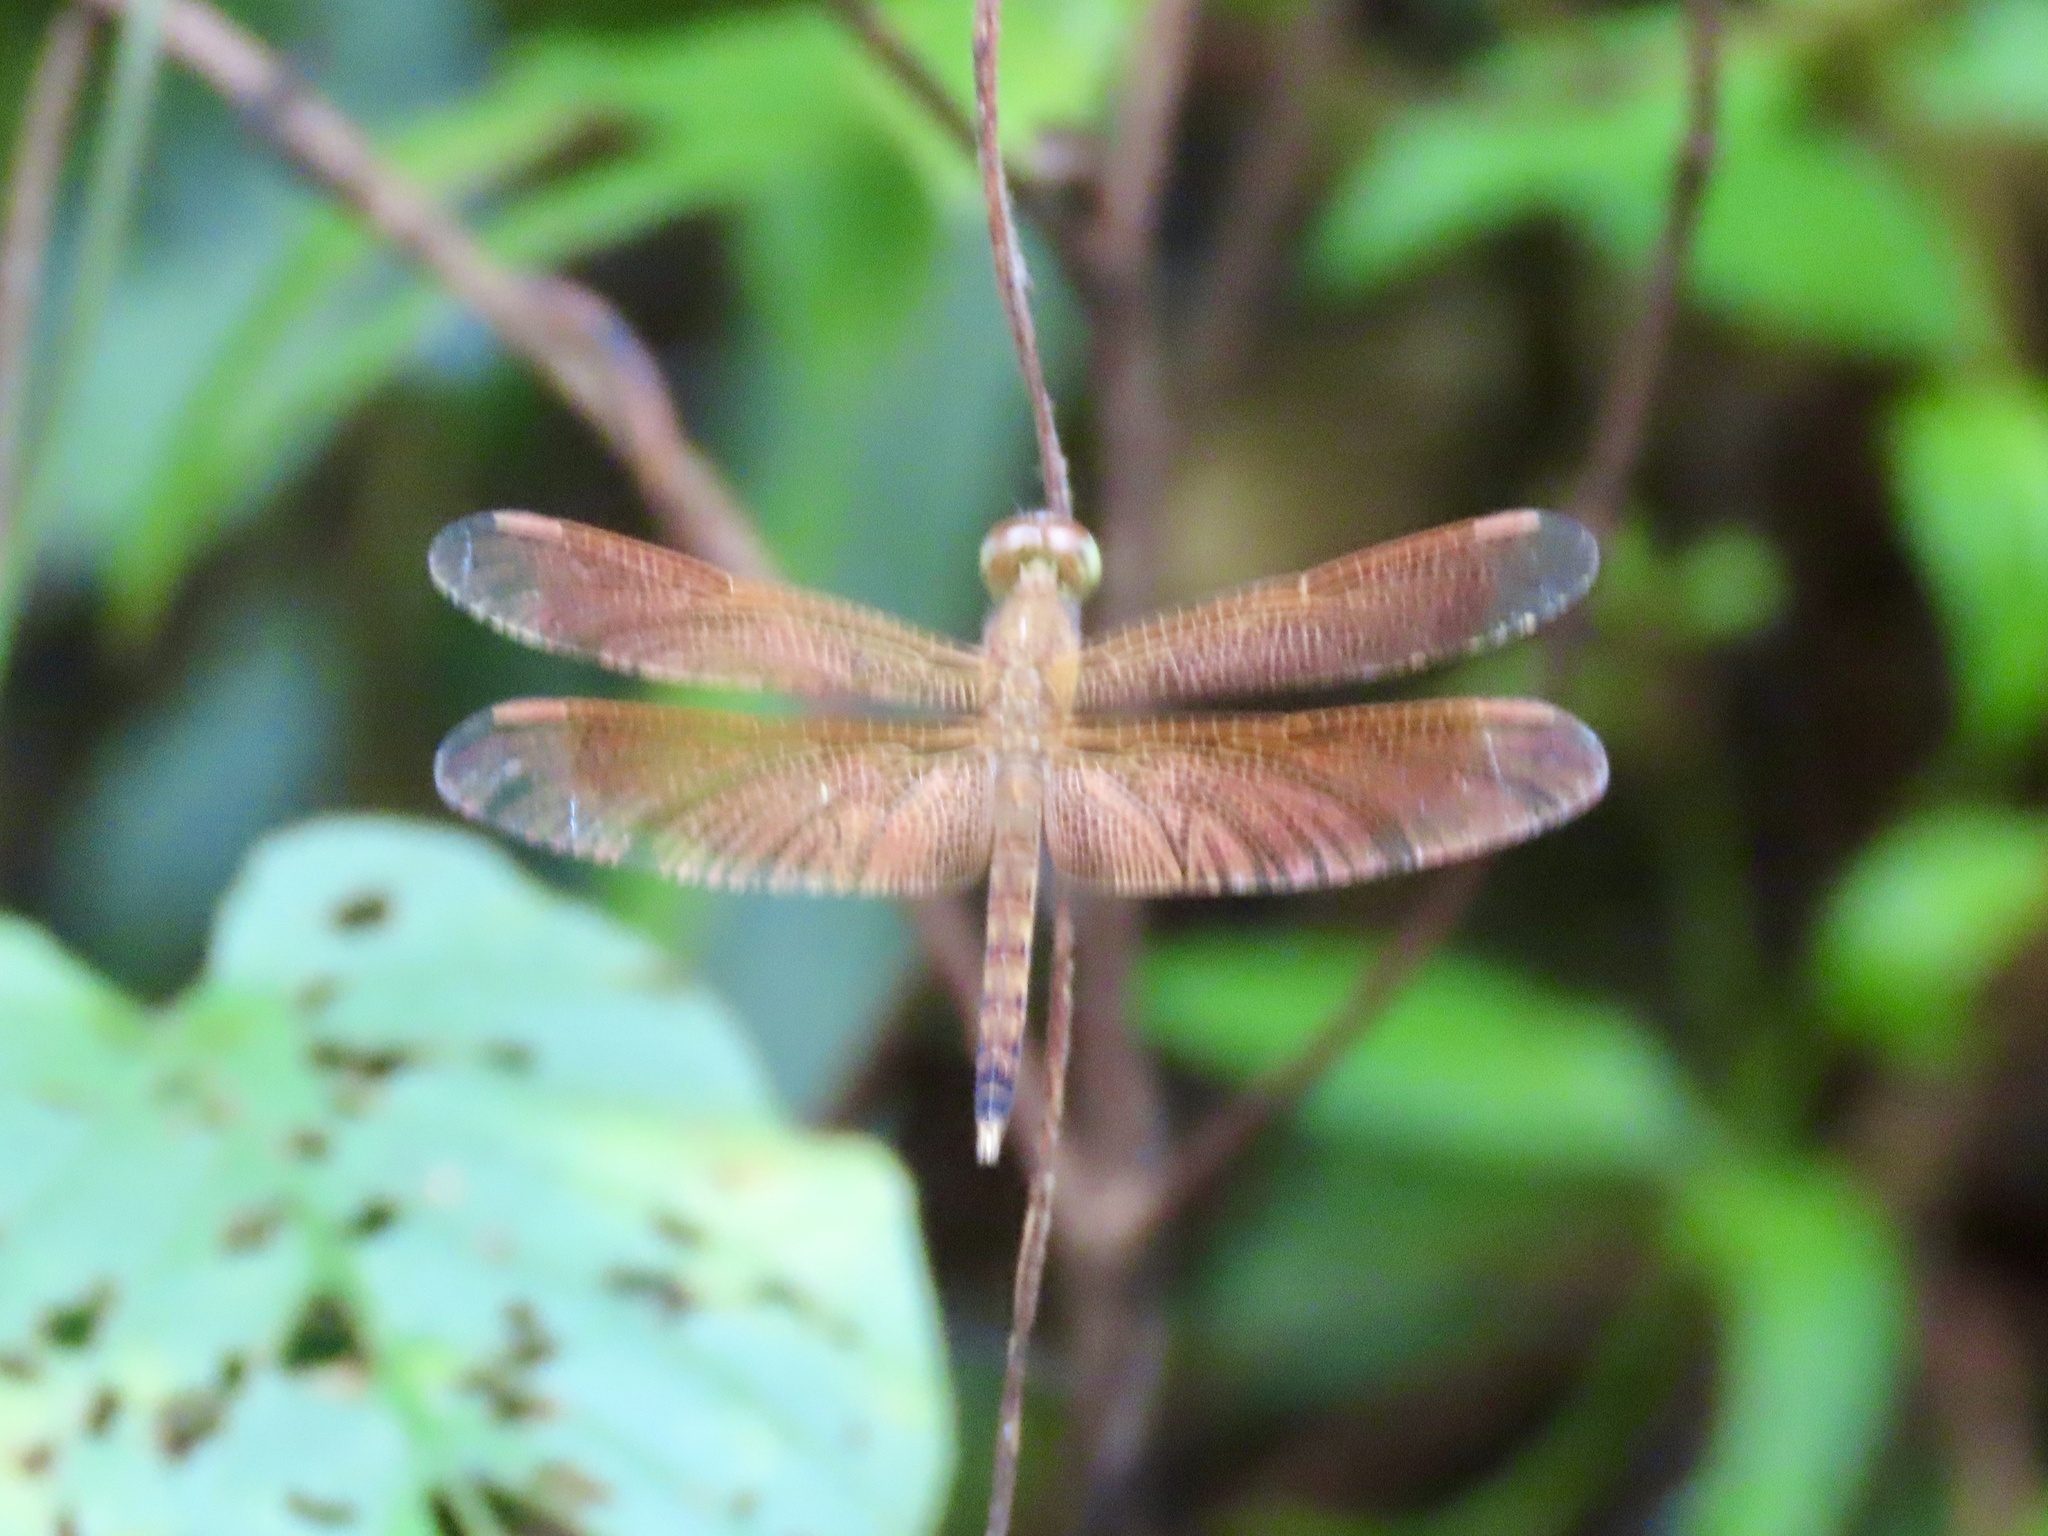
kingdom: Animalia
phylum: Arthropoda
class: Insecta
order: Odonata
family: Libellulidae
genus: Neurothemis
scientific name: Neurothemis fluctuans
